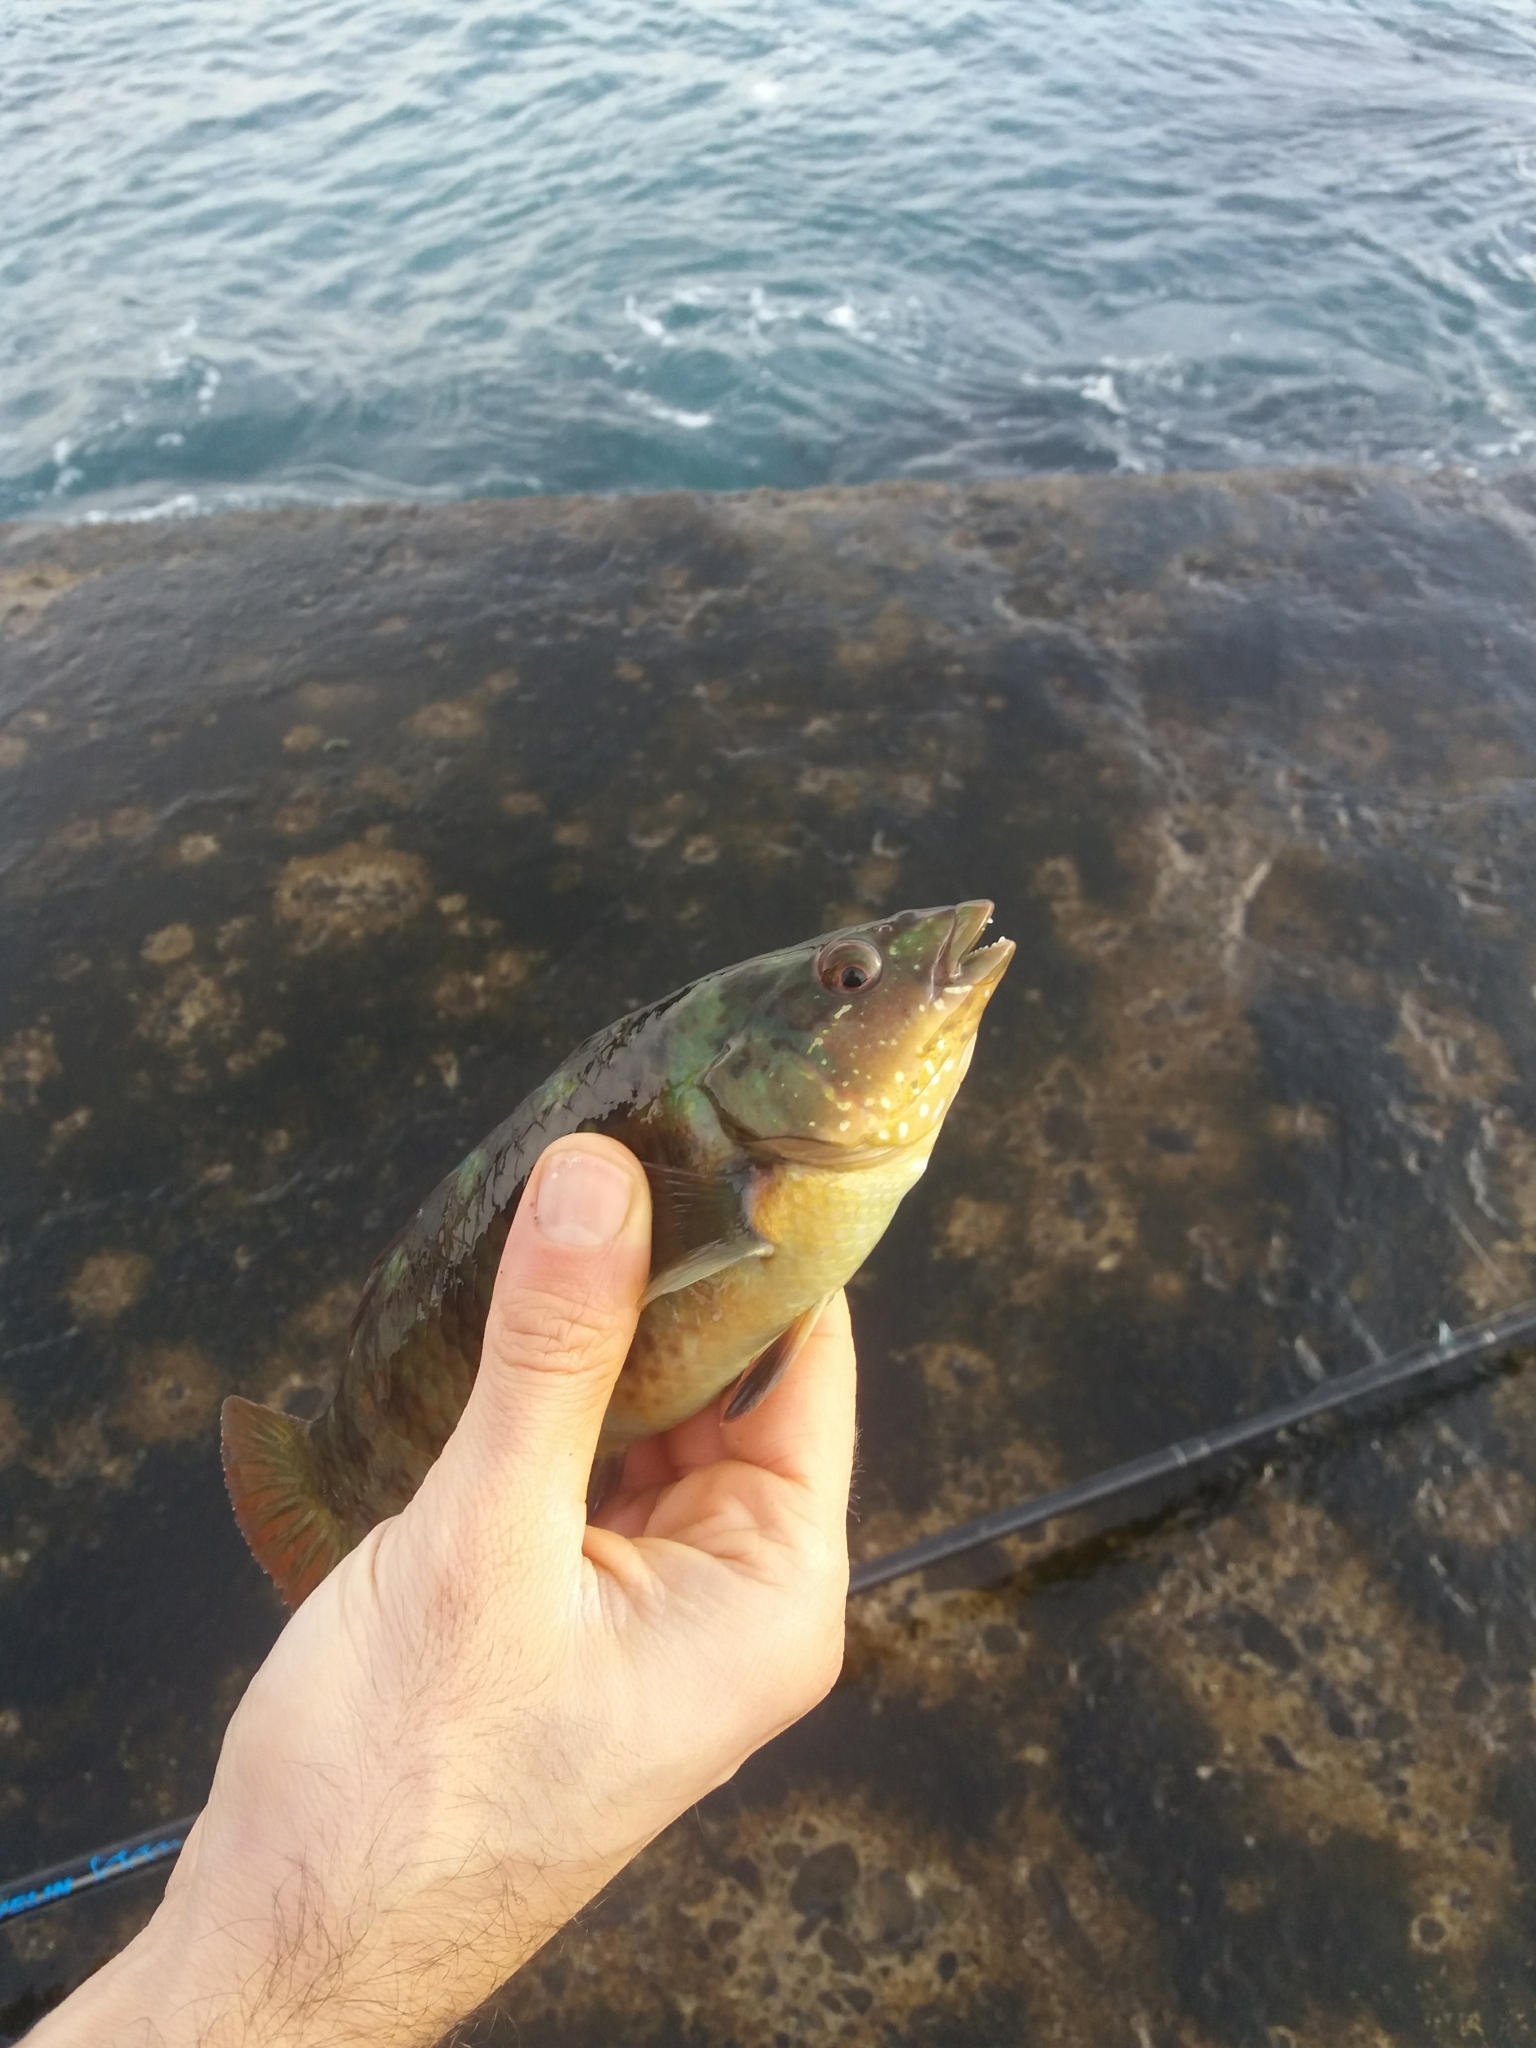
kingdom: Animalia
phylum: Chordata
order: Perciformes
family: Labridae
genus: Notolabrus
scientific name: Notolabrus fucicola
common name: Banded parrotfish
